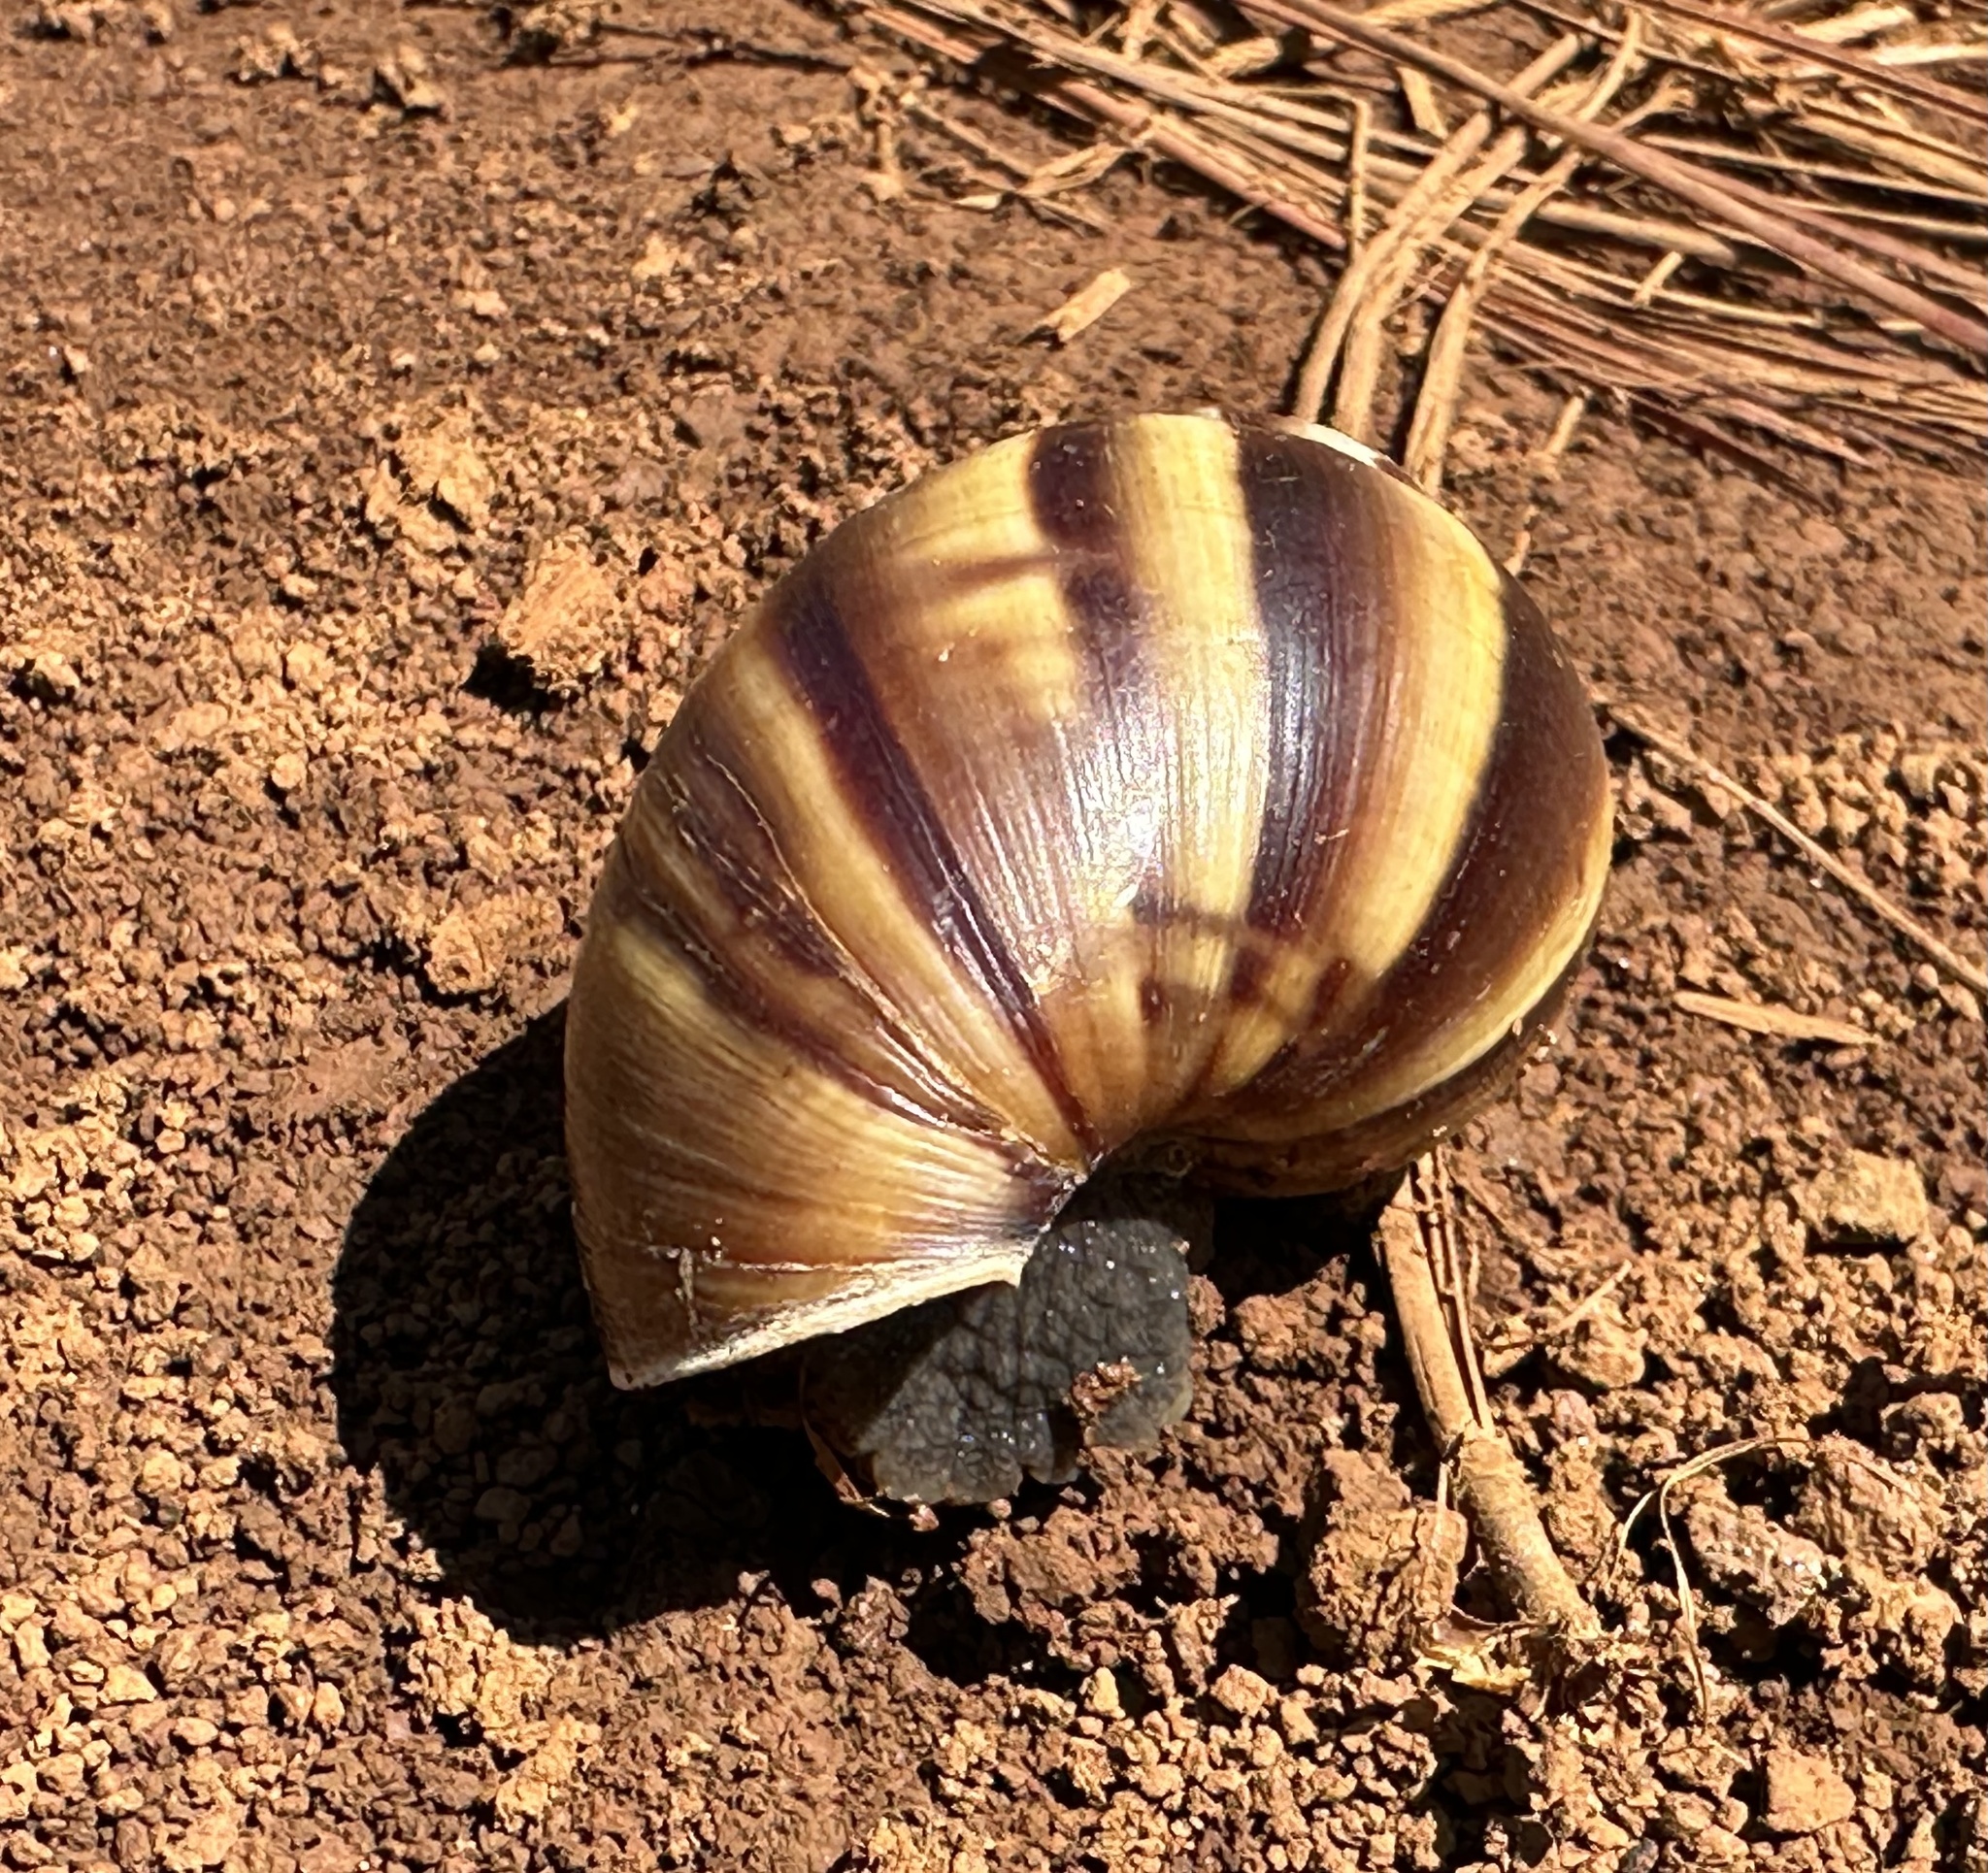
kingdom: Animalia
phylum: Mollusca
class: Gastropoda
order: Stylommatophora
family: Achatinidae
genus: Lissachatina
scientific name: Lissachatina fulica
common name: Giant african snail
